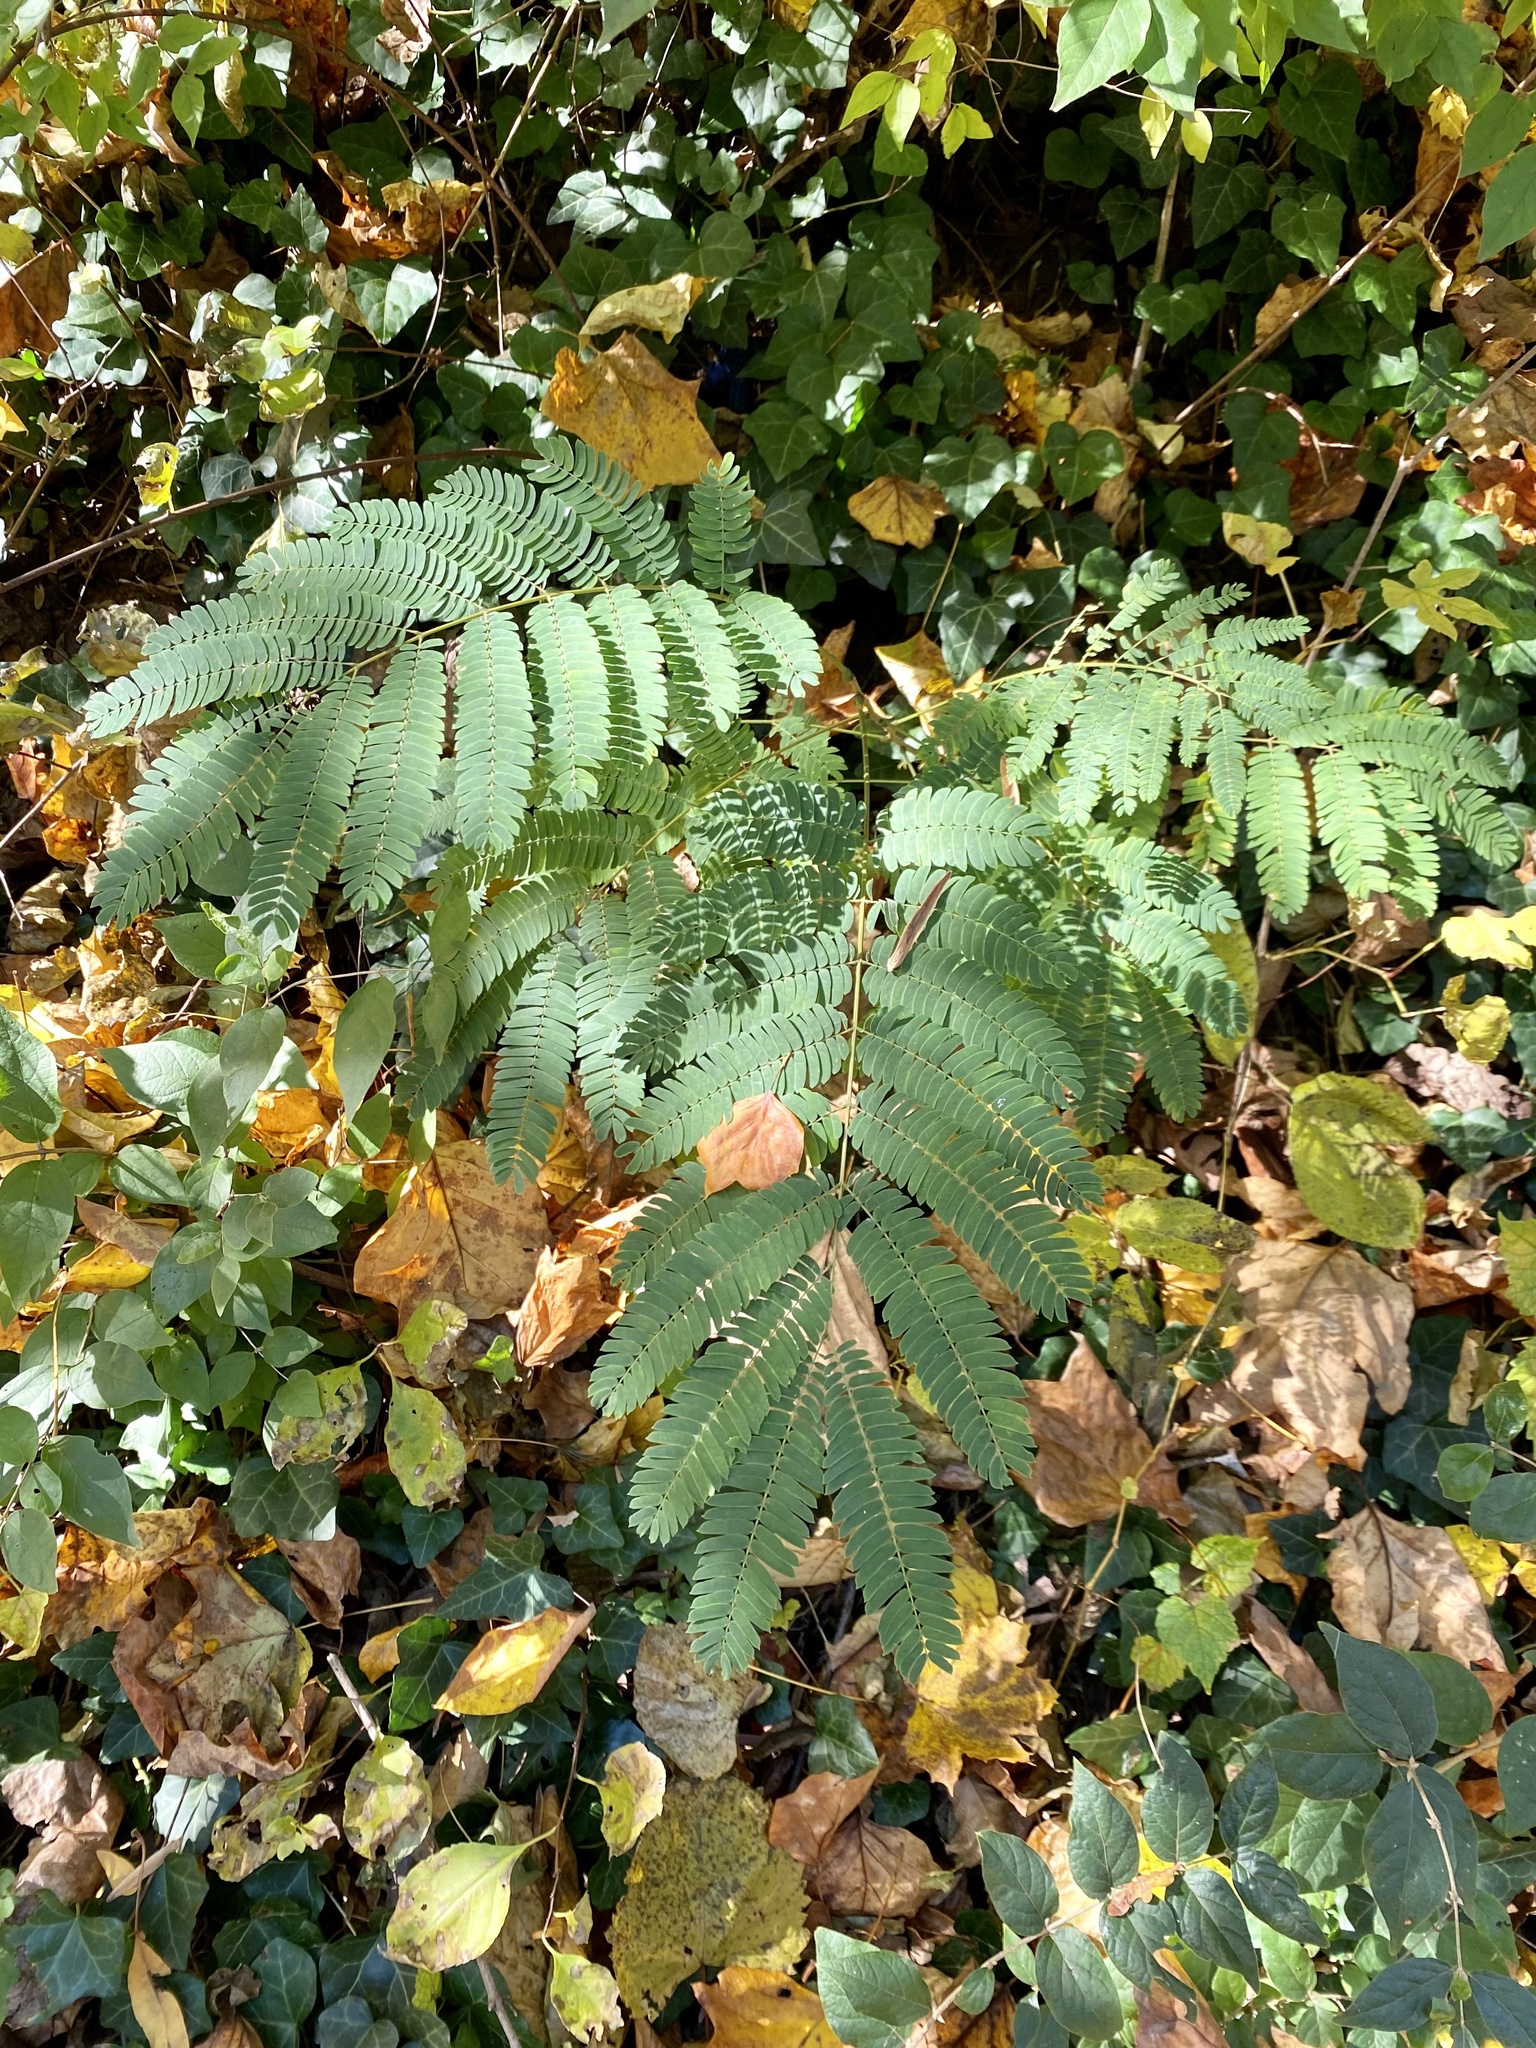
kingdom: Plantae
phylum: Tracheophyta
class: Magnoliopsida
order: Fabales
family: Fabaceae
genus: Albizia
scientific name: Albizia julibrissin
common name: Silktree
